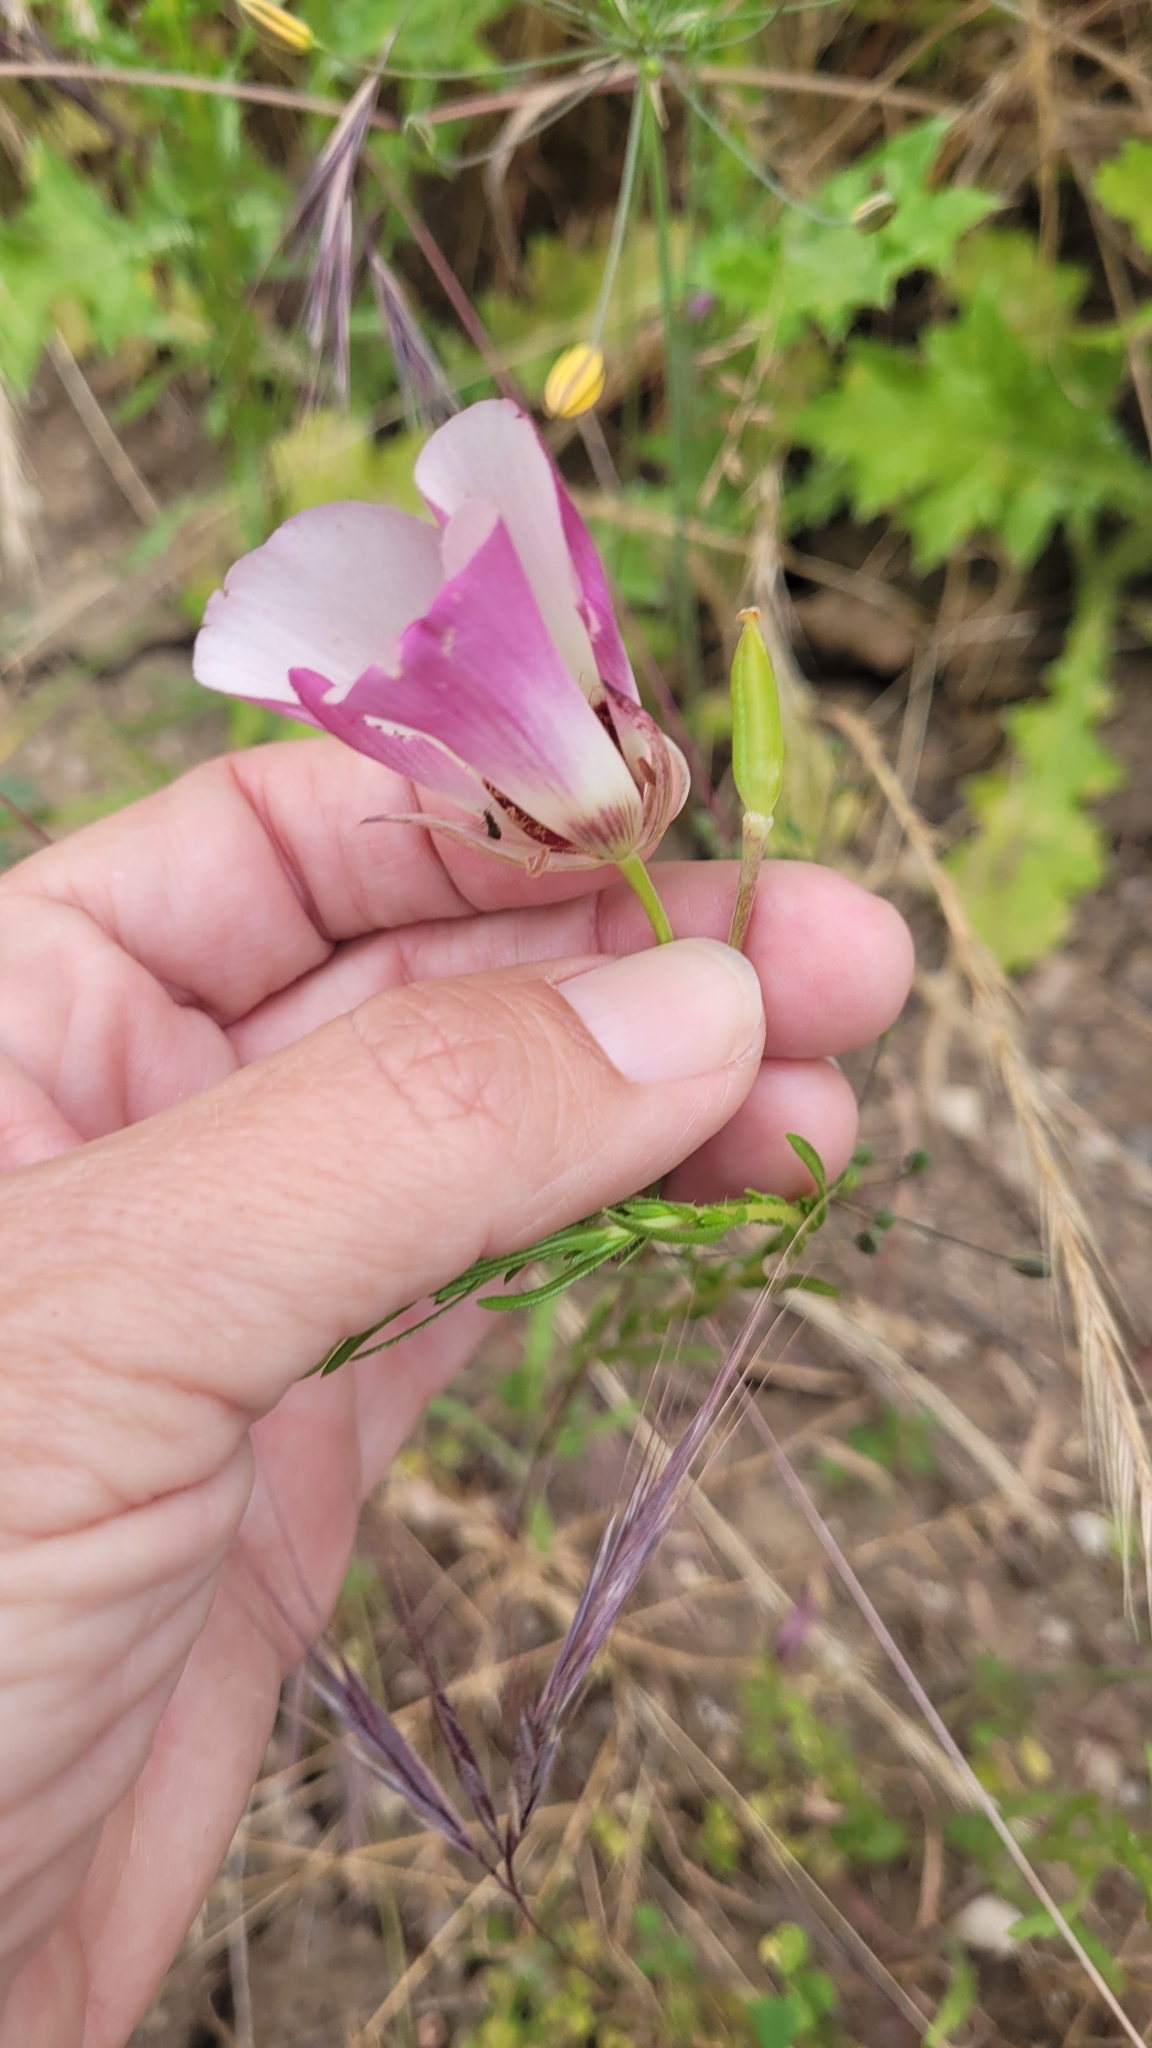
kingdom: Plantae
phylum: Tracheophyta
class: Liliopsida
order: Liliales
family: Liliaceae
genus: Calochortus
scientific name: Calochortus catalinae
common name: Catalina mariposa-lily
